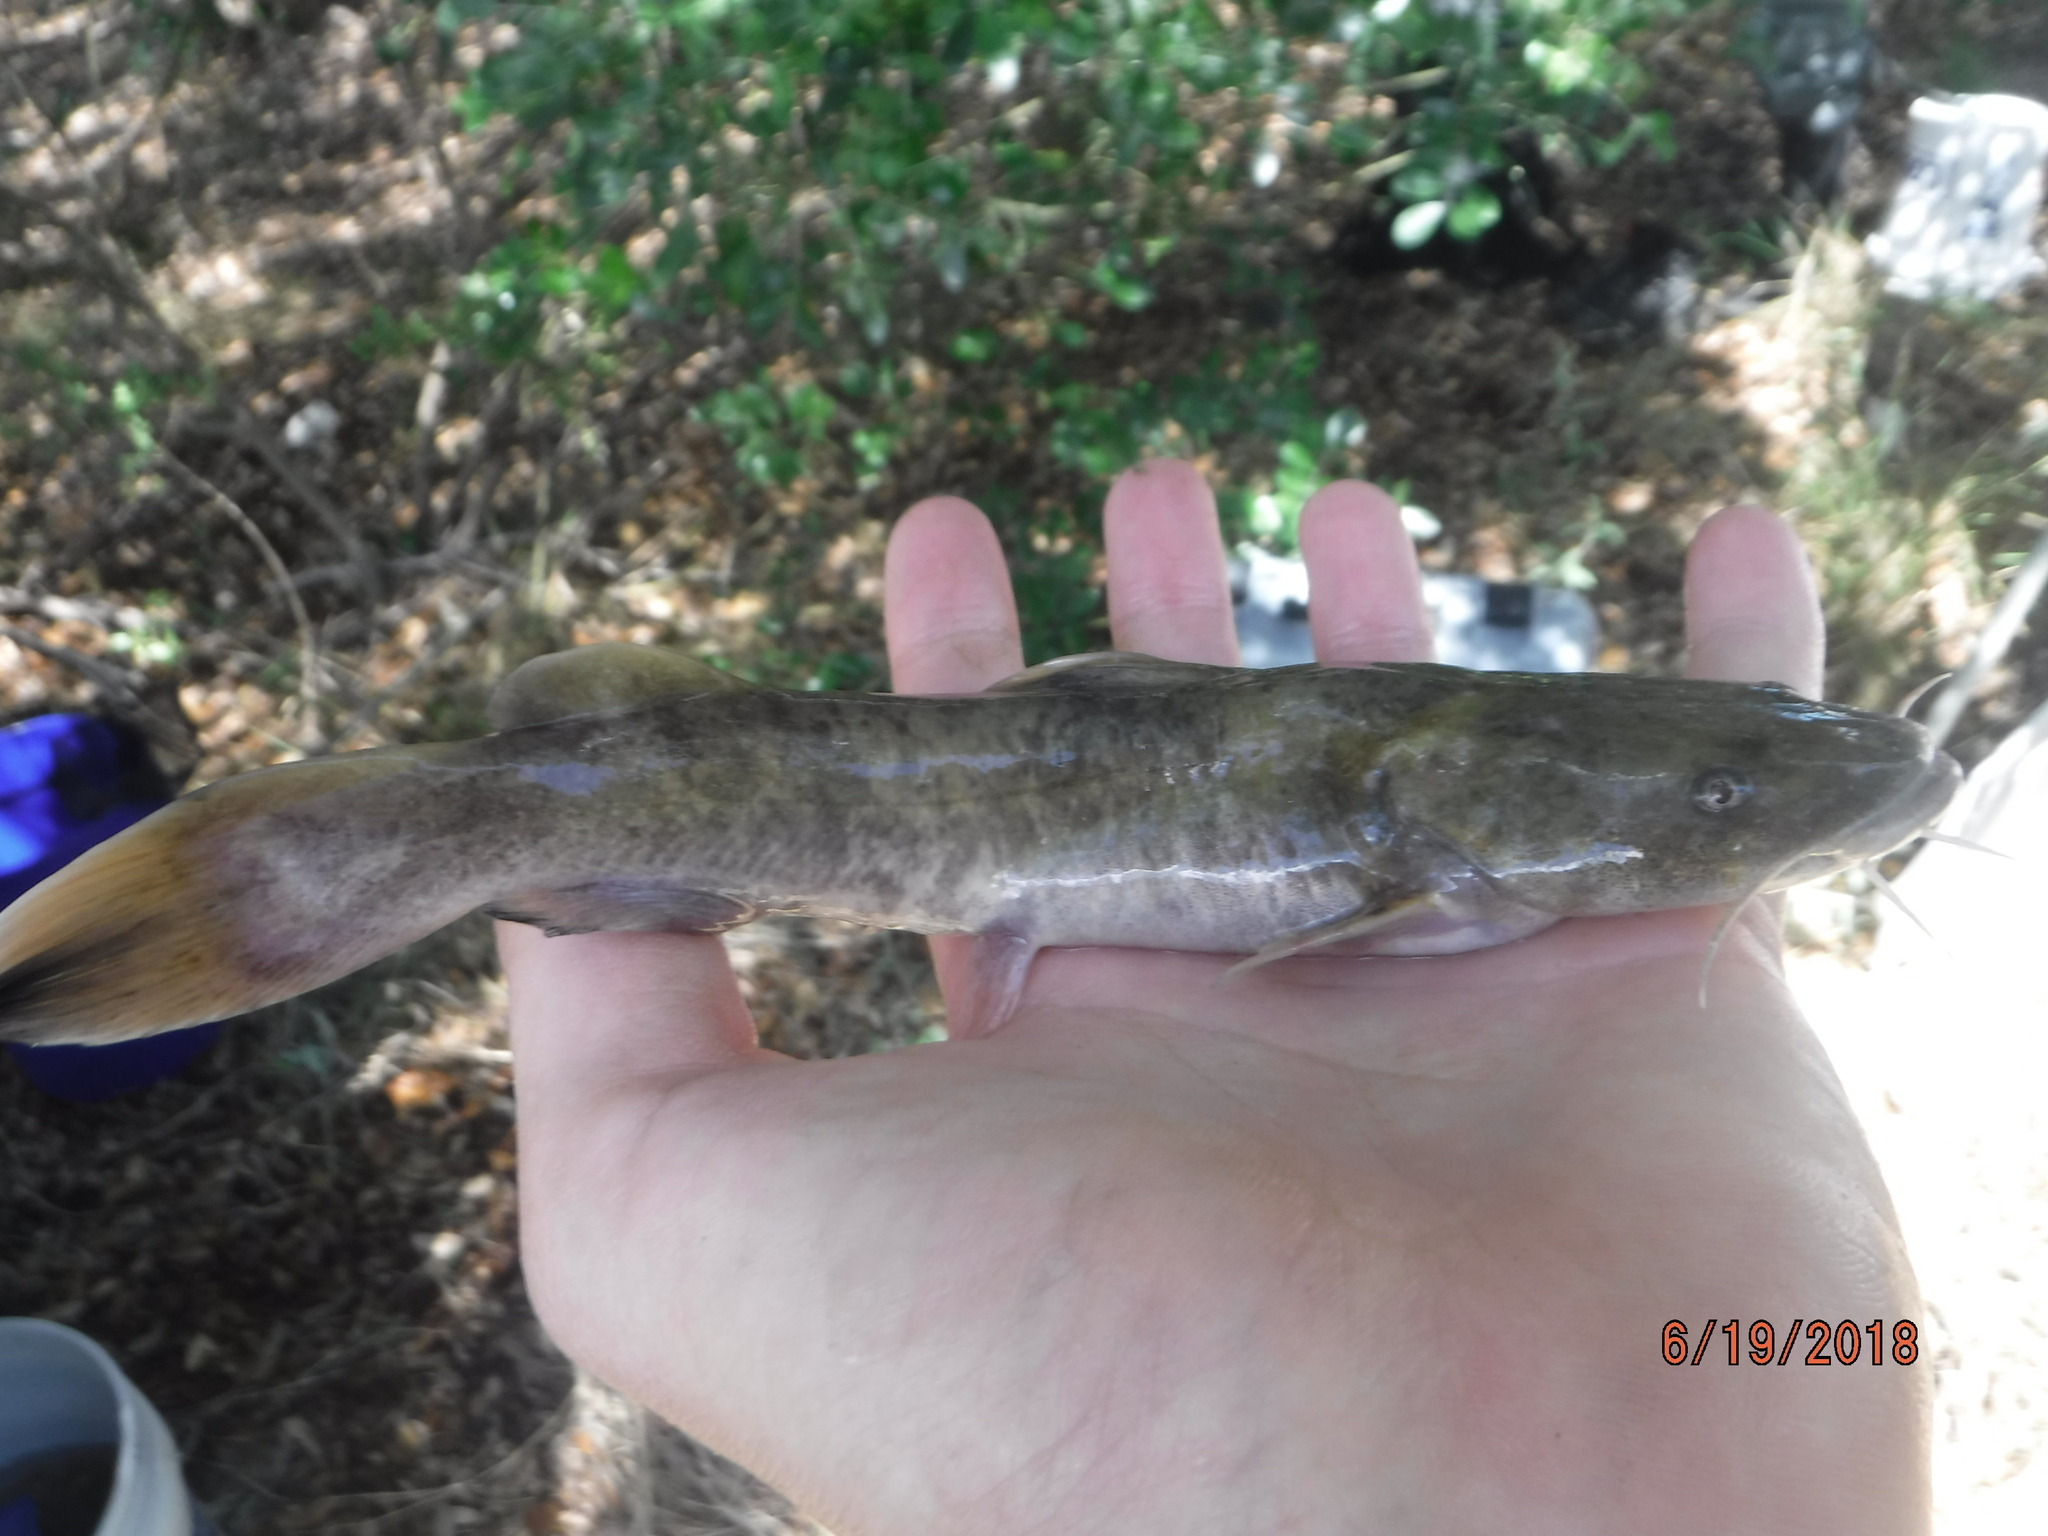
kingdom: Animalia
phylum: Chordata
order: Siluriformes
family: Ictaluridae
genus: Pylodictis
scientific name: Pylodictis olivaris
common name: Flathead catfish
